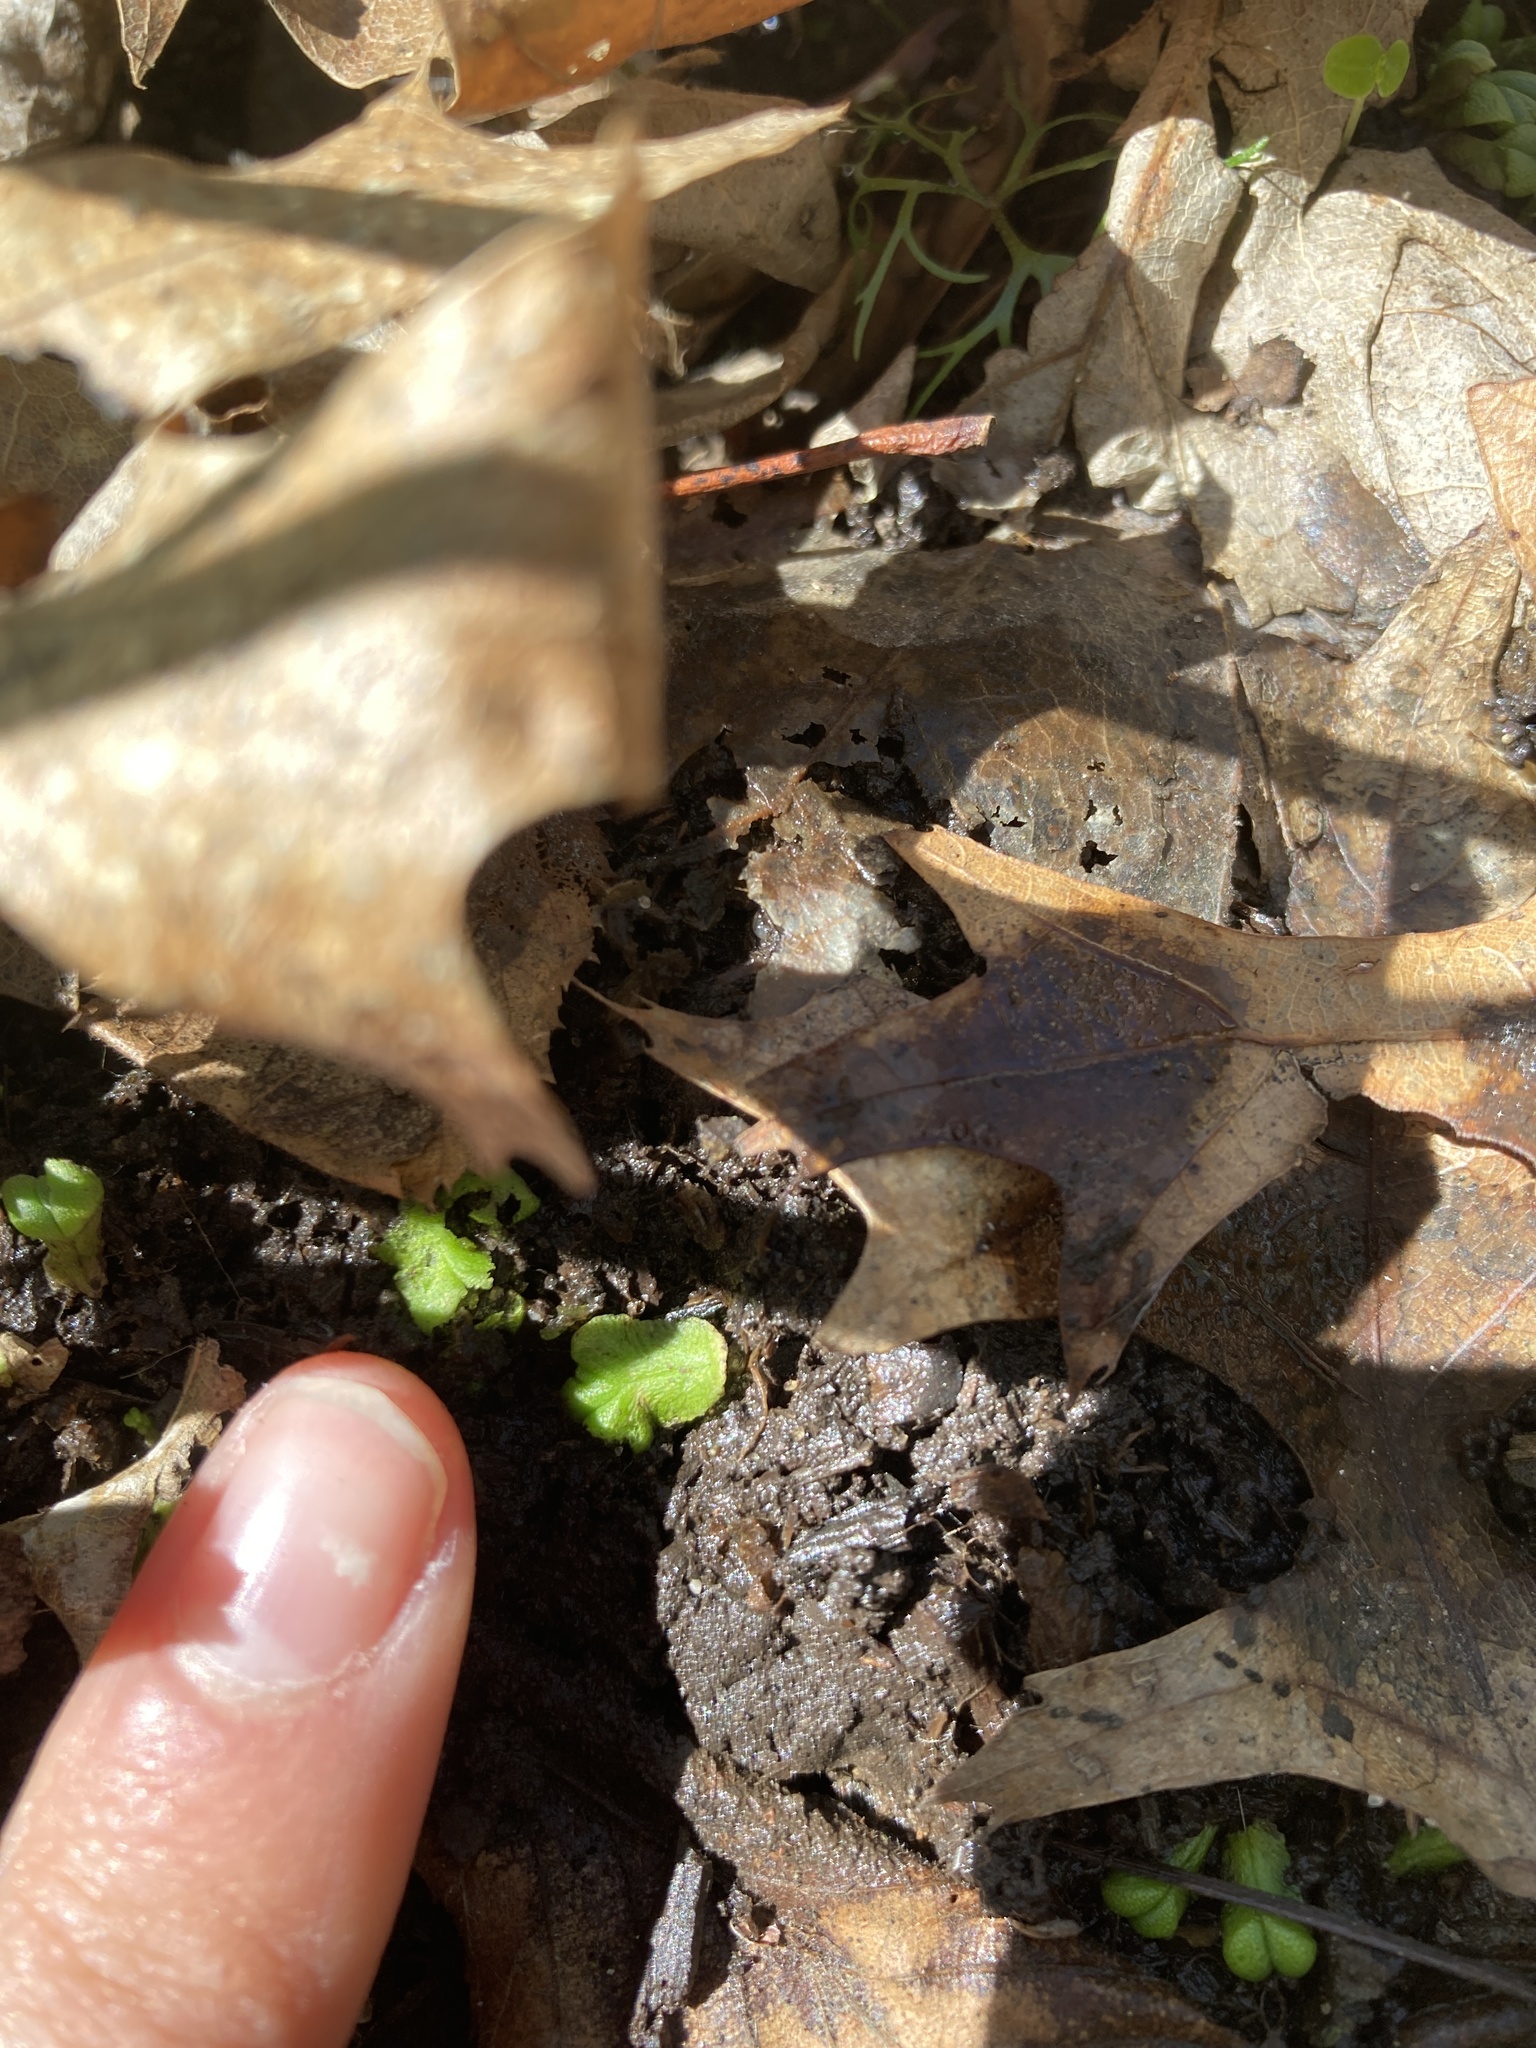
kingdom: Plantae
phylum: Marchantiophyta
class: Marchantiopsida
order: Marchantiales
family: Ricciaceae
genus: Ricciocarpos
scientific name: Ricciocarpos natans
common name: Purple-fringed liverwort
